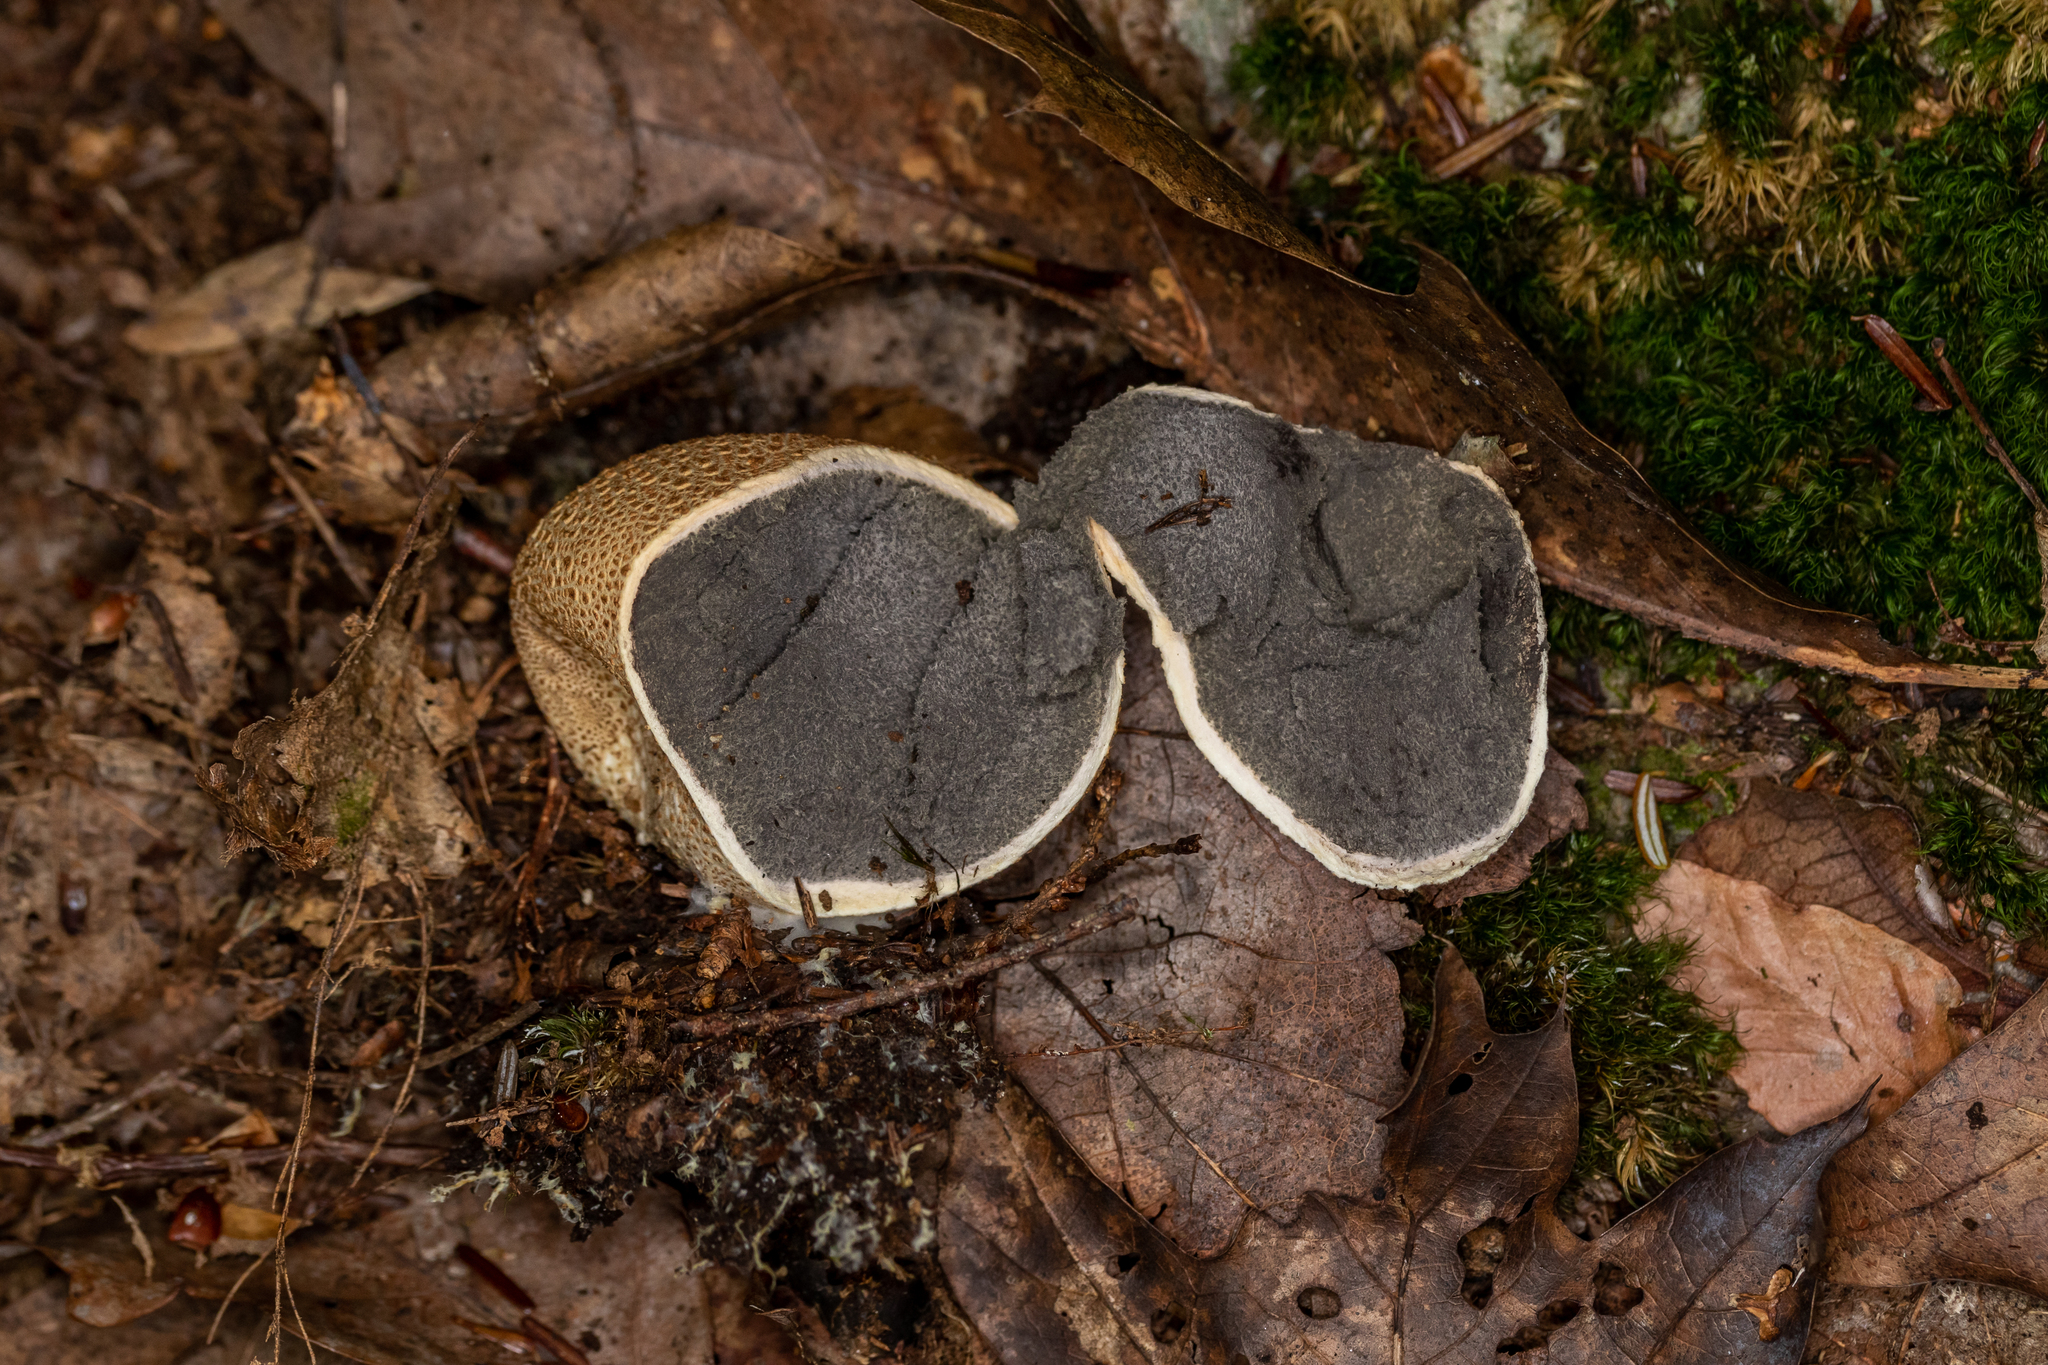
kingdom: Fungi
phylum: Basidiomycota
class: Agaricomycetes
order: Boletales
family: Sclerodermataceae
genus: Scleroderma
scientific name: Scleroderma citrinum
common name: Common earthball
